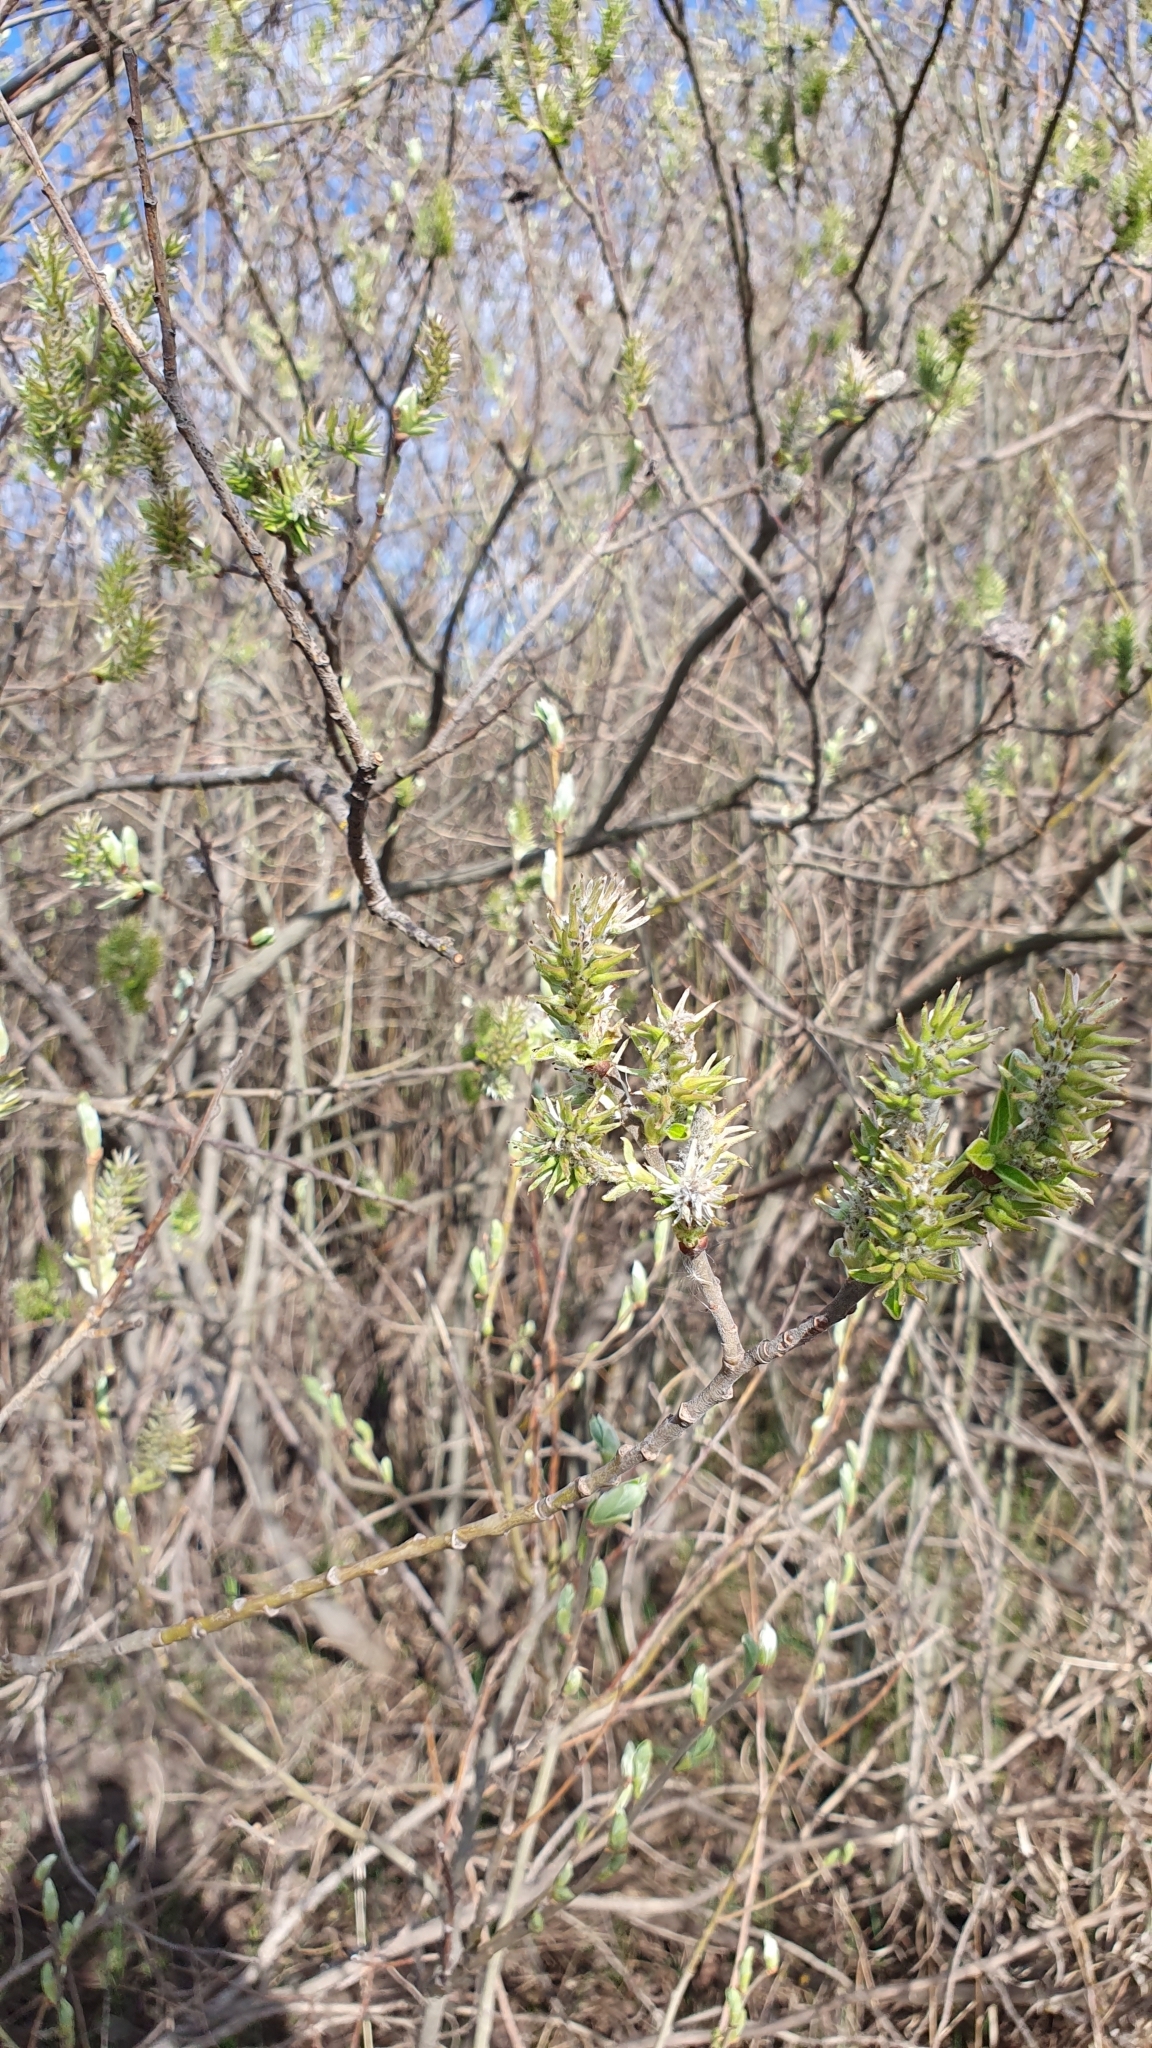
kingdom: Plantae
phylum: Tracheophyta
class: Magnoliopsida
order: Malpighiales
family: Salicaceae
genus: Salix
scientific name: Salix caprea
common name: Goat willow
